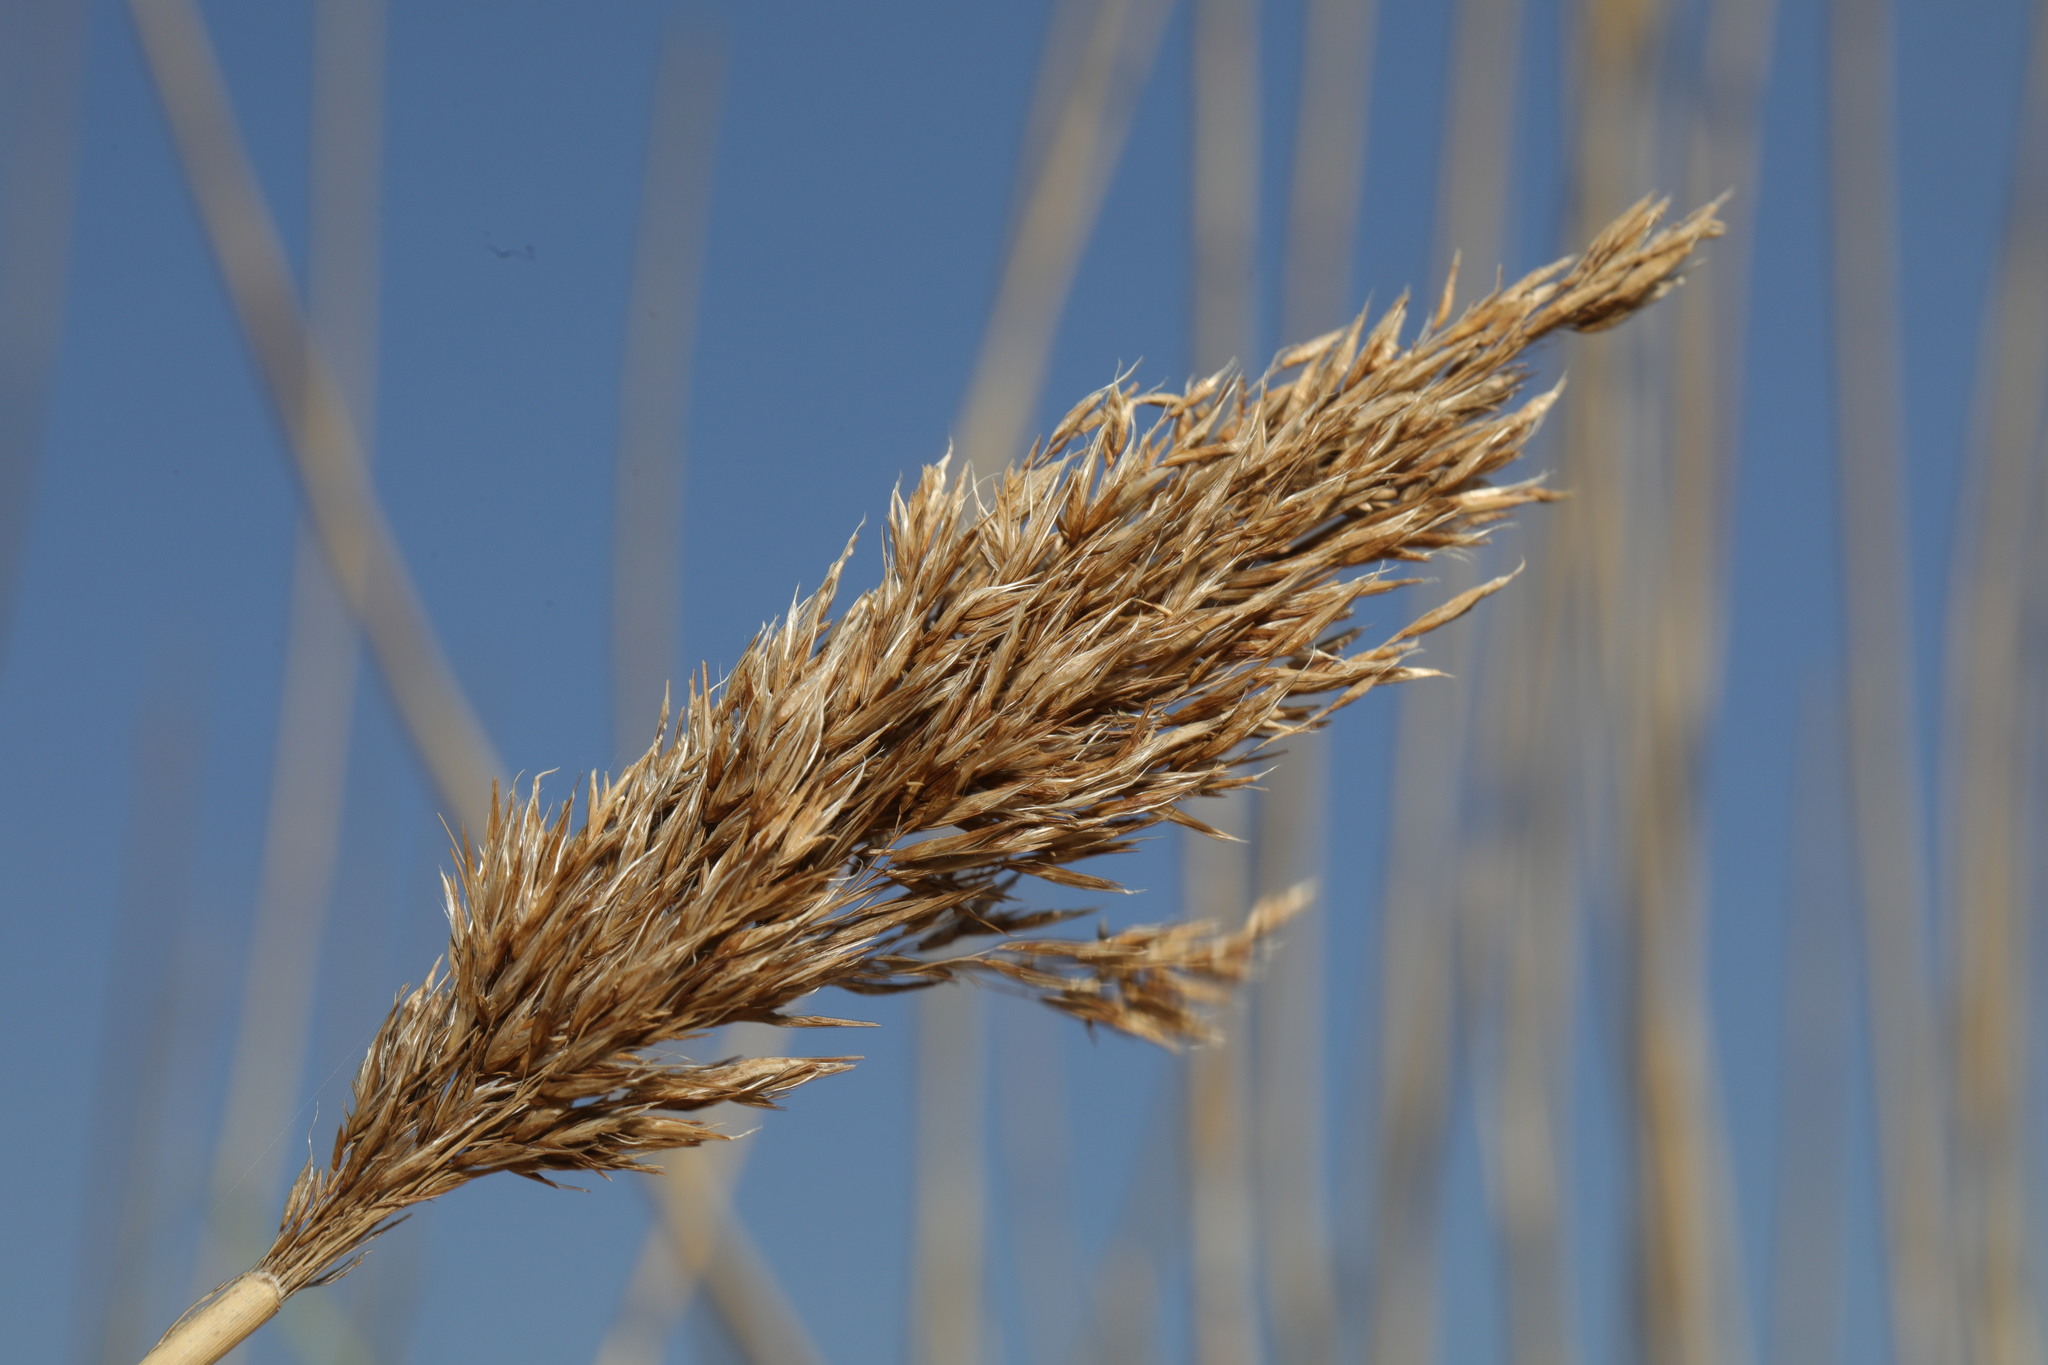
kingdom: Plantae
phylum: Tracheophyta
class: Liliopsida
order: Poales
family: Poaceae
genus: Phragmites
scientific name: Phragmites australis
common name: Common reed
